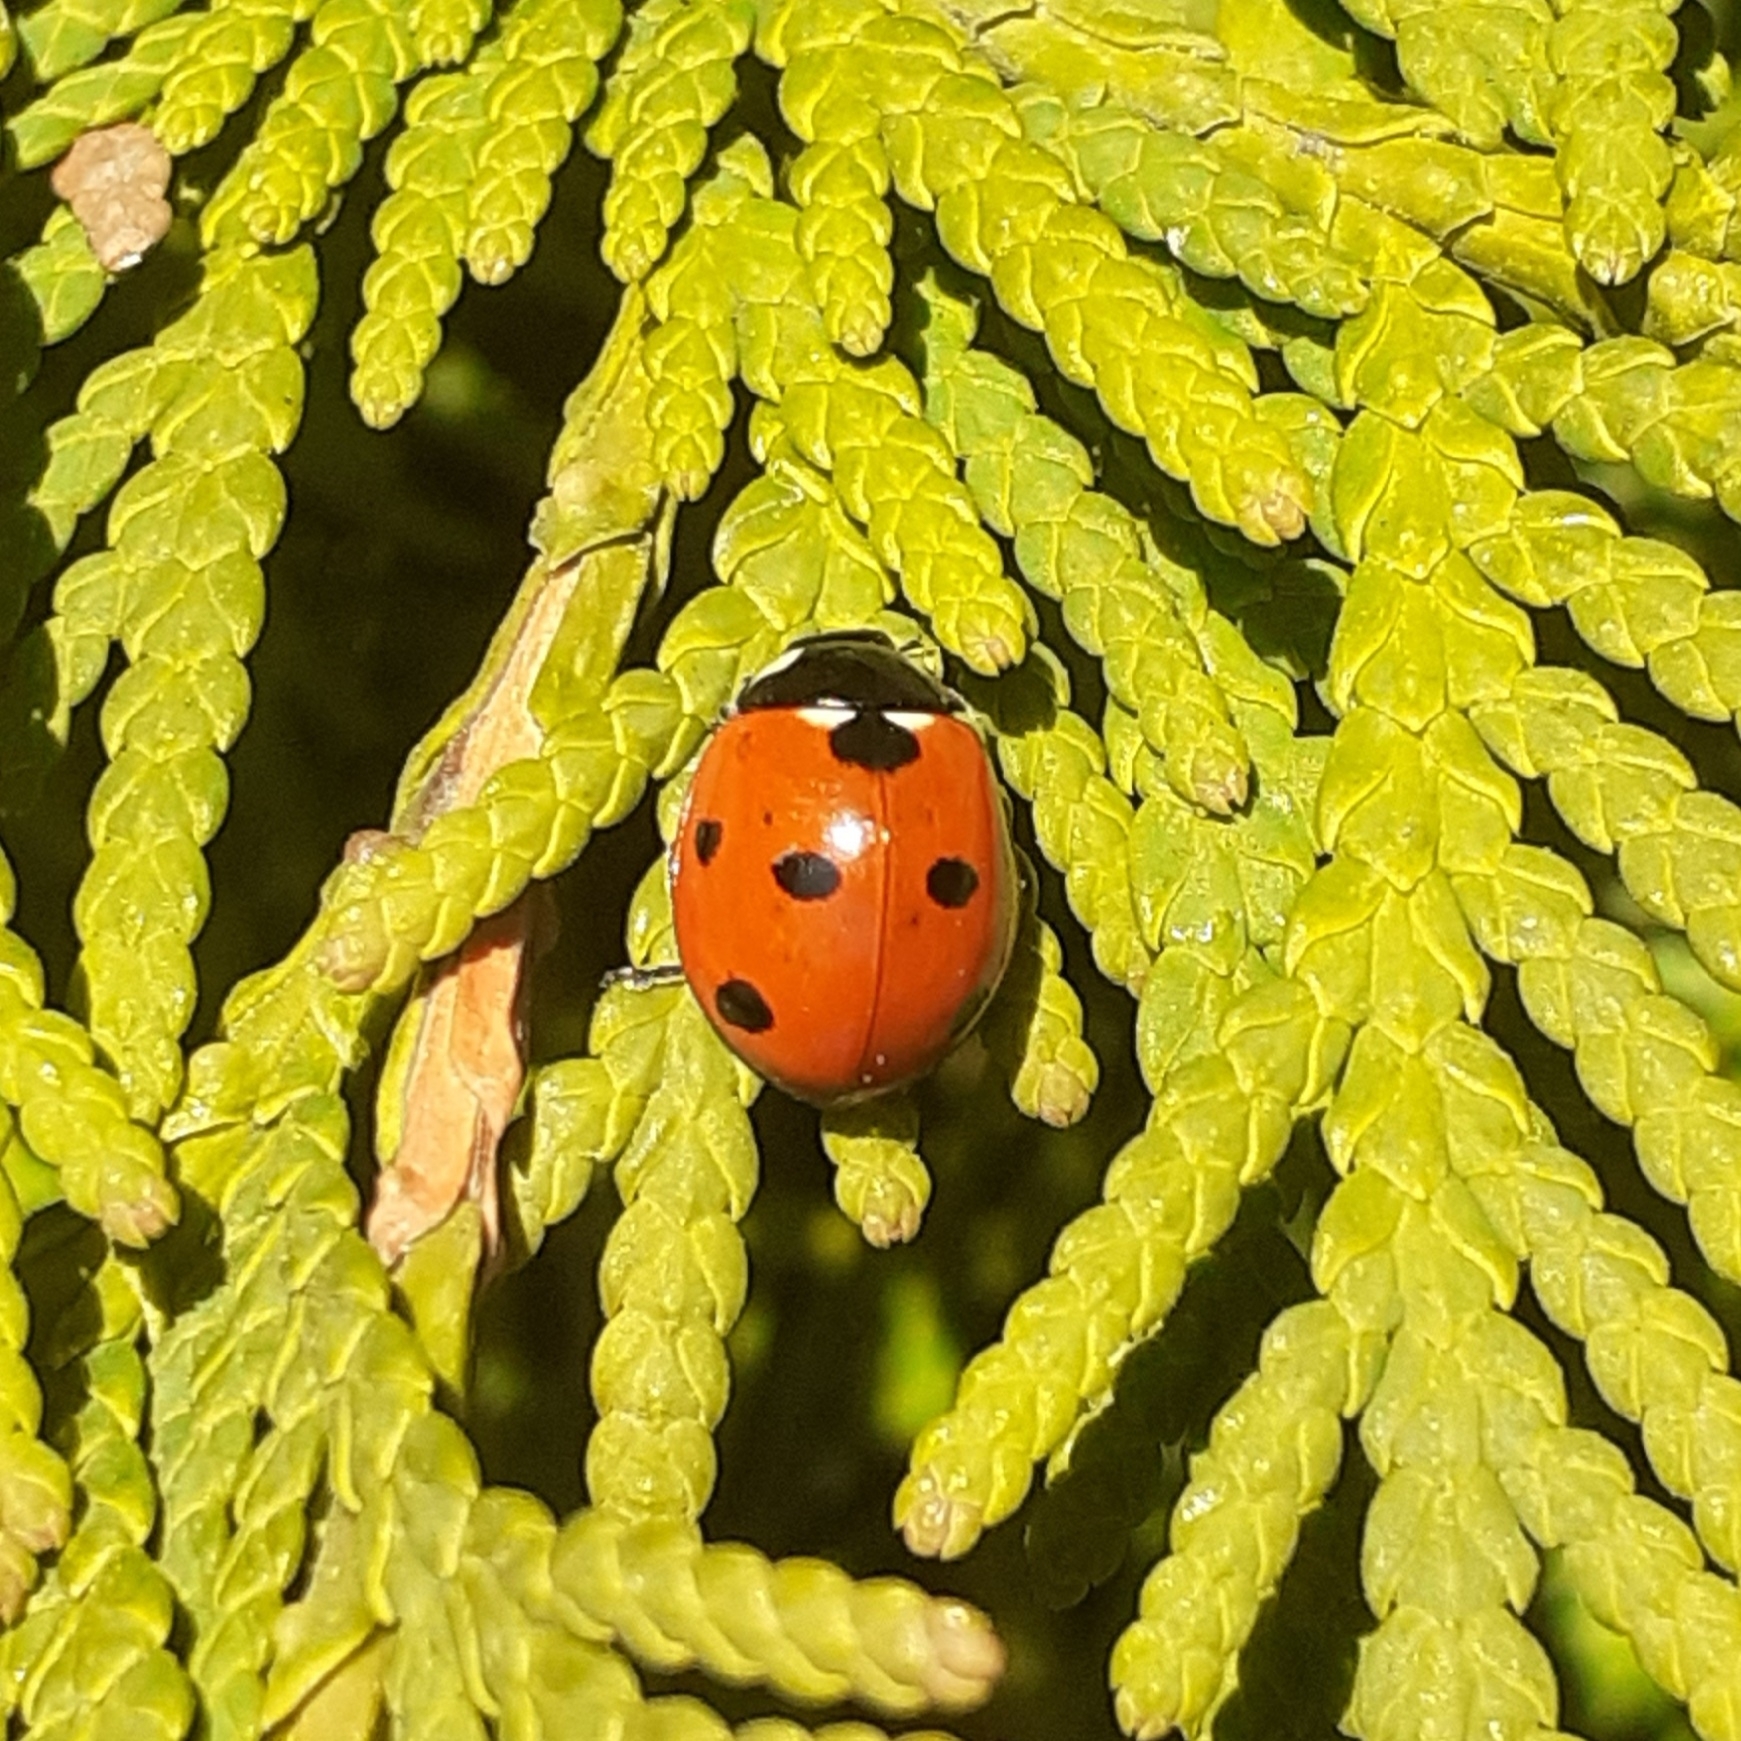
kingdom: Animalia
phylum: Arthropoda
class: Insecta
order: Coleoptera
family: Coccinellidae
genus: Coccinella
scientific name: Coccinella septempunctata
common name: Sevenspotted lady beetle
